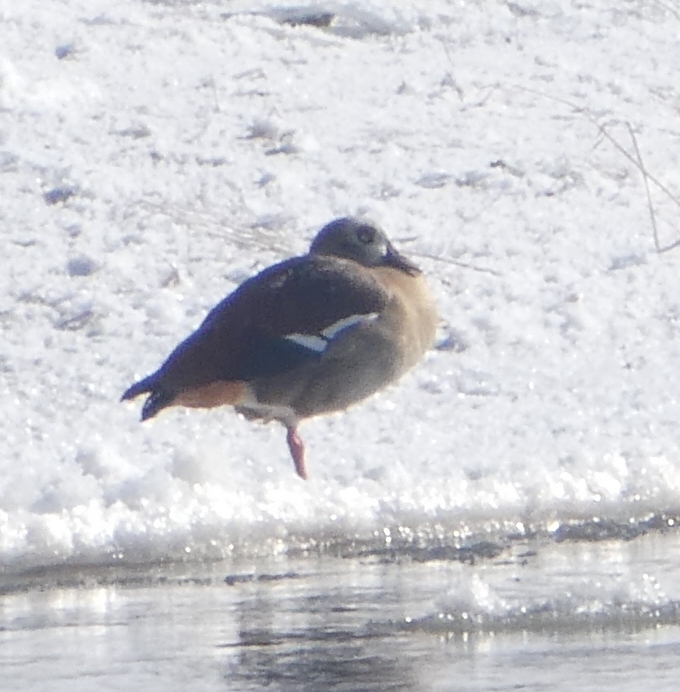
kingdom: Animalia
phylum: Chordata
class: Aves
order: Anseriformes
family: Anatidae
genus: Alopochen
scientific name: Alopochen aegyptiaca
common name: Egyptian goose
